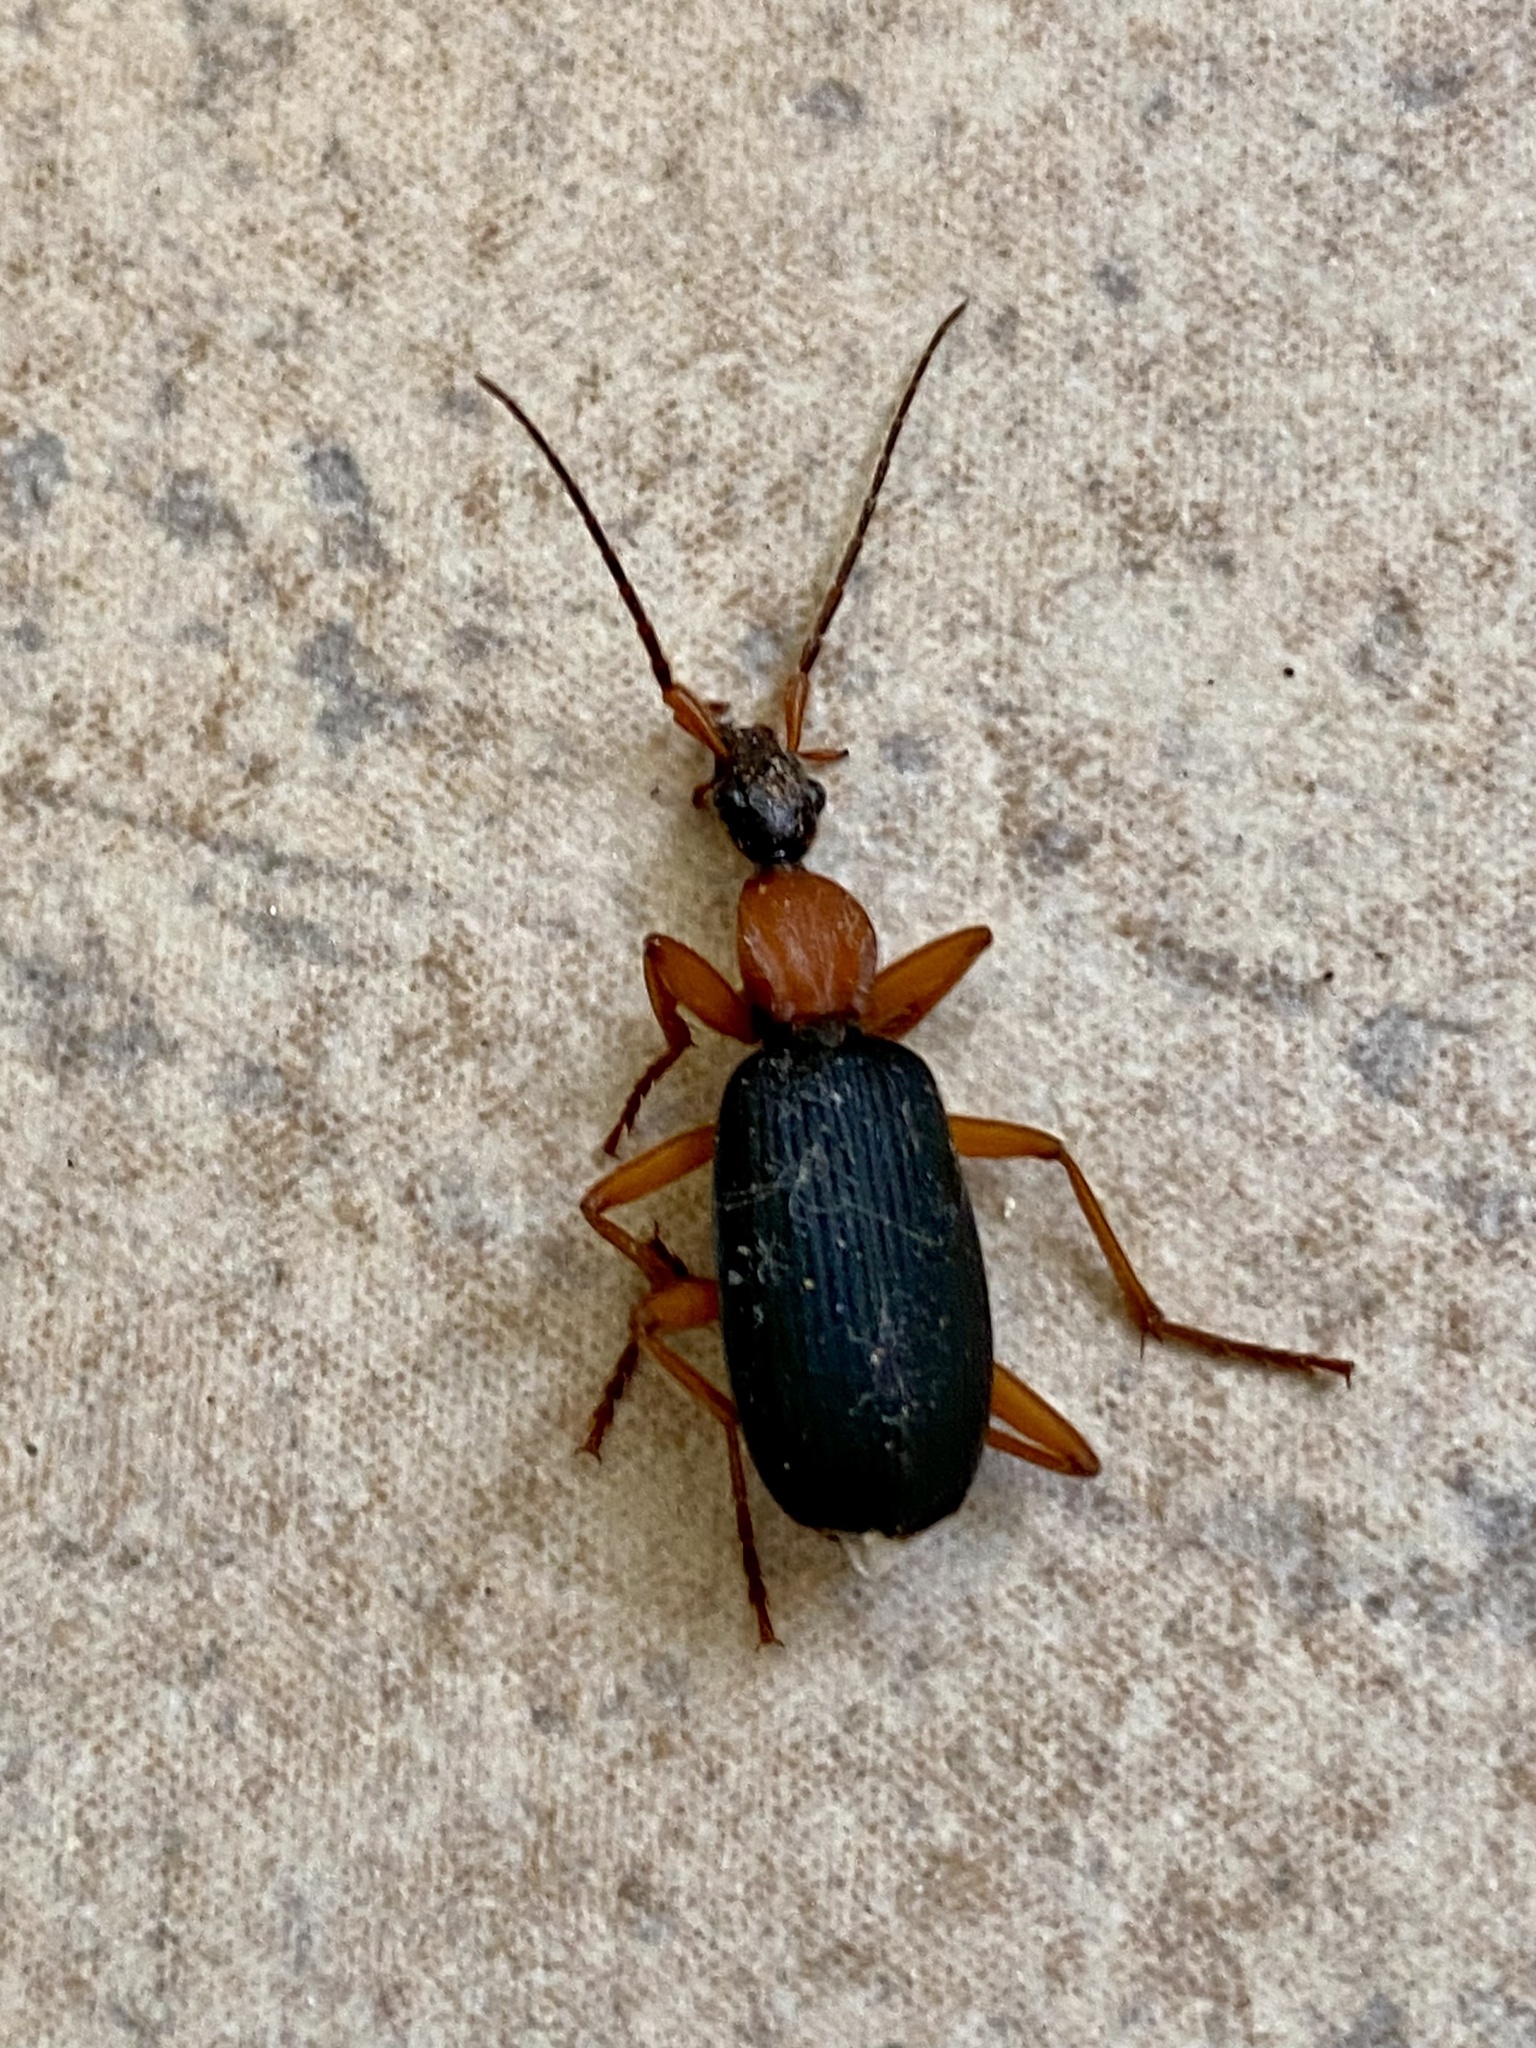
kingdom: Animalia
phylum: Arthropoda
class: Insecta
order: Coleoptera
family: Carabidae
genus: Galerita
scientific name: Galerita bicolor
